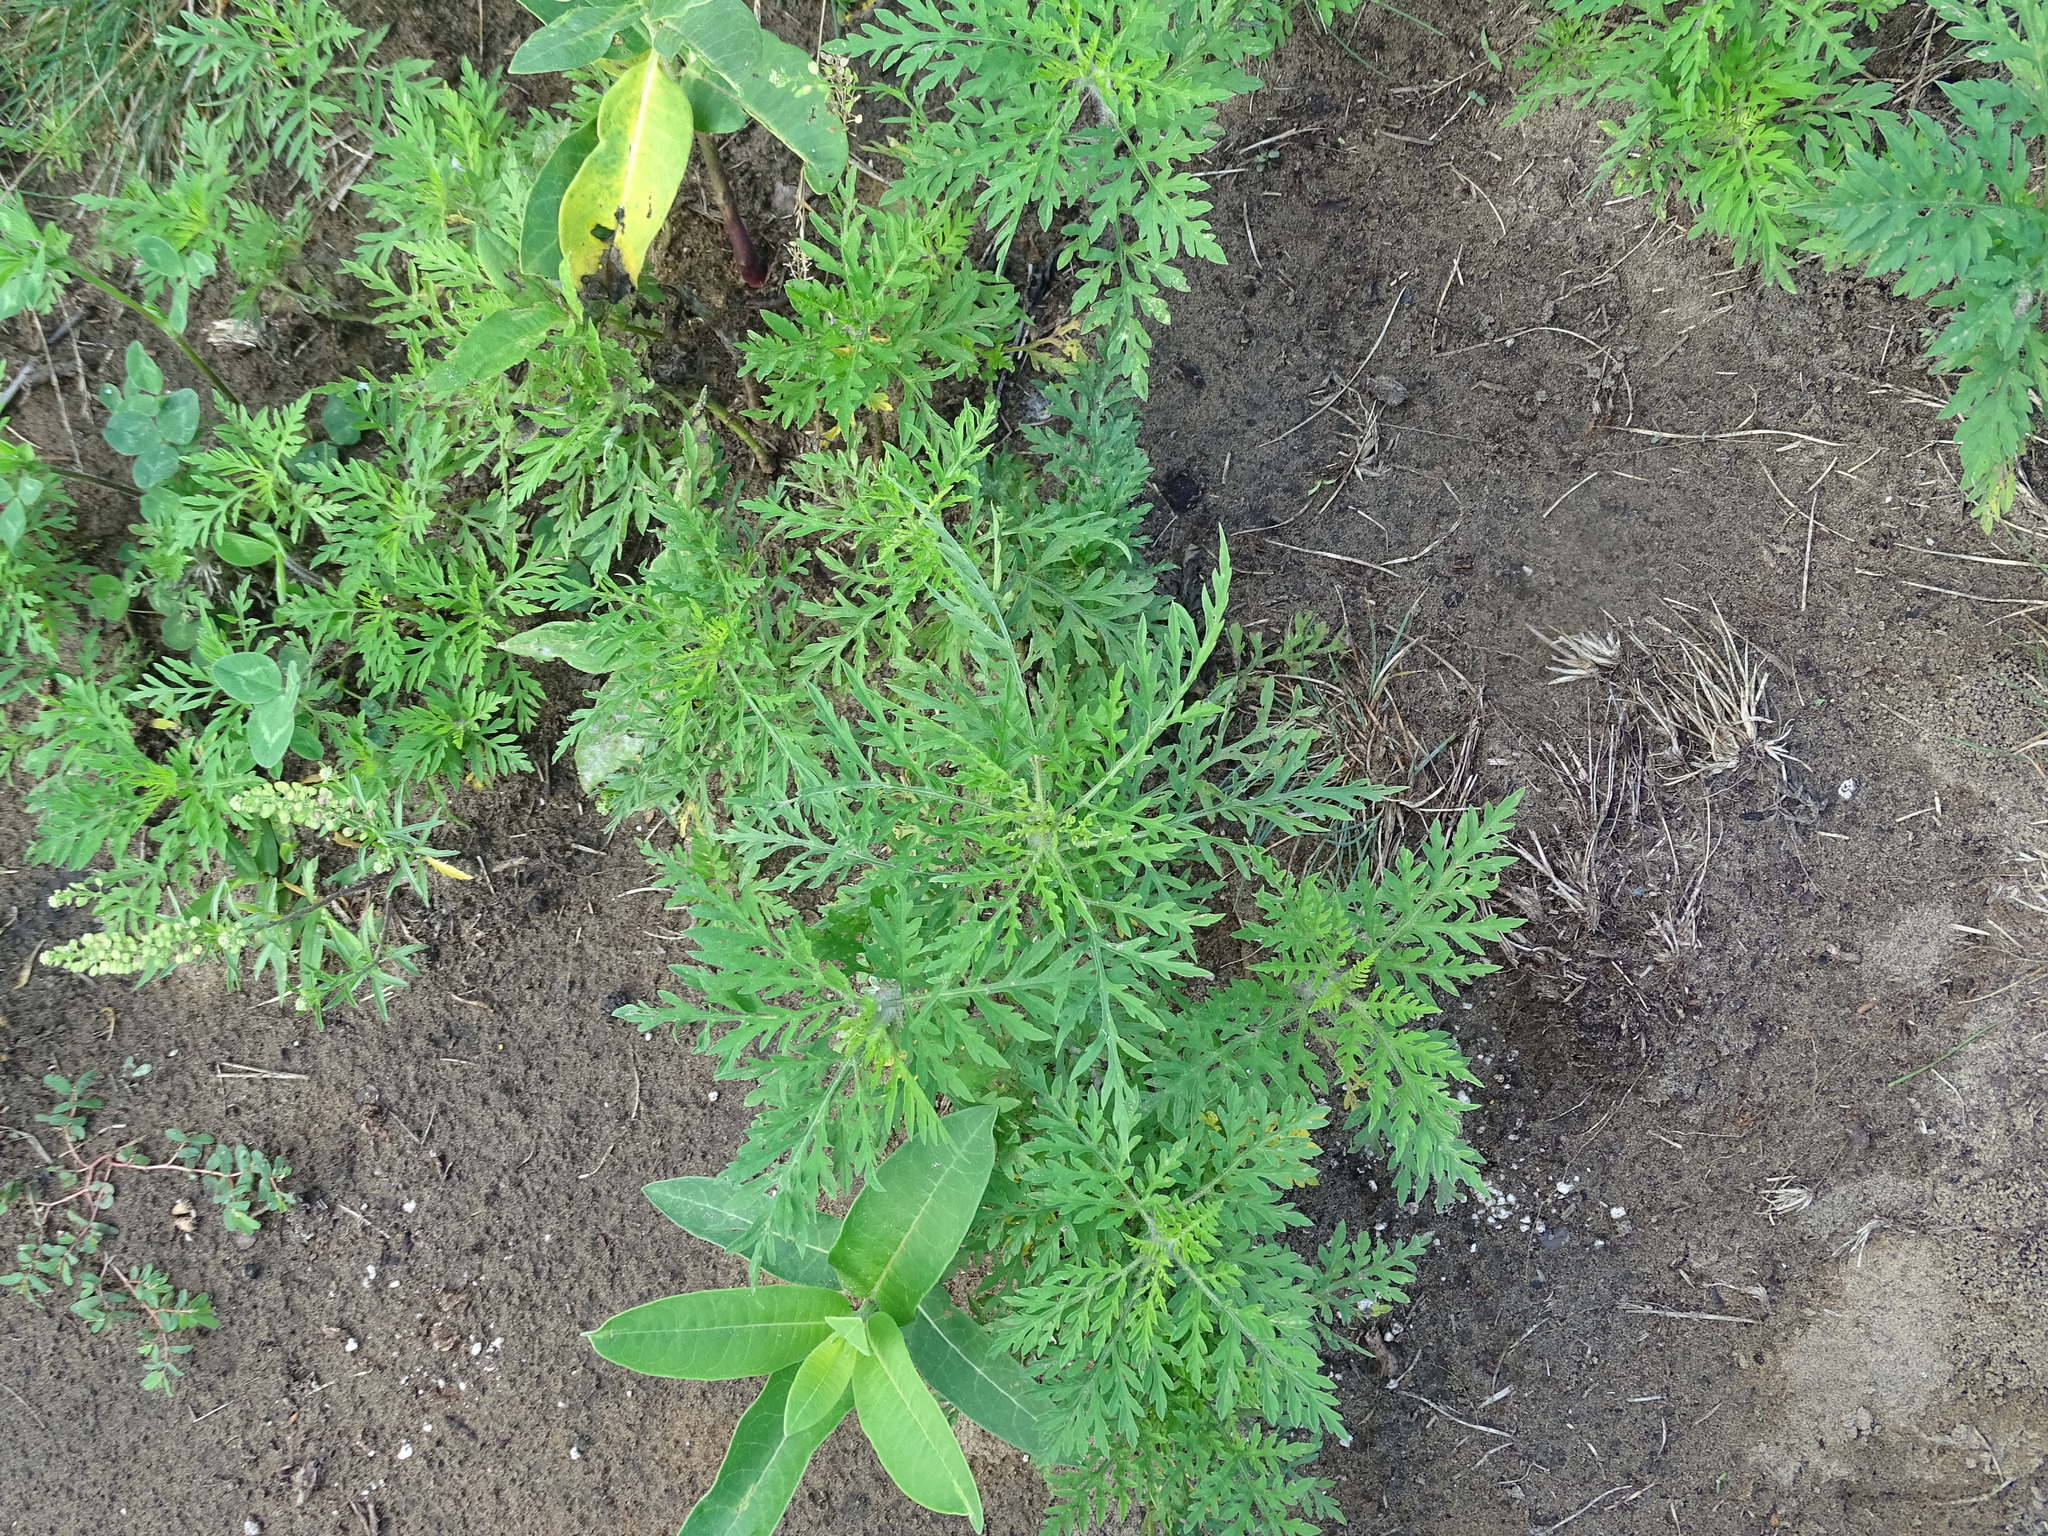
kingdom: Plantae
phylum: Tracheophyta
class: Magnoliopsida
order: Asterales
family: Asteraceae
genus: Ambrosia
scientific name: Ambrosia artemisiifolia
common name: Annual ragweed
